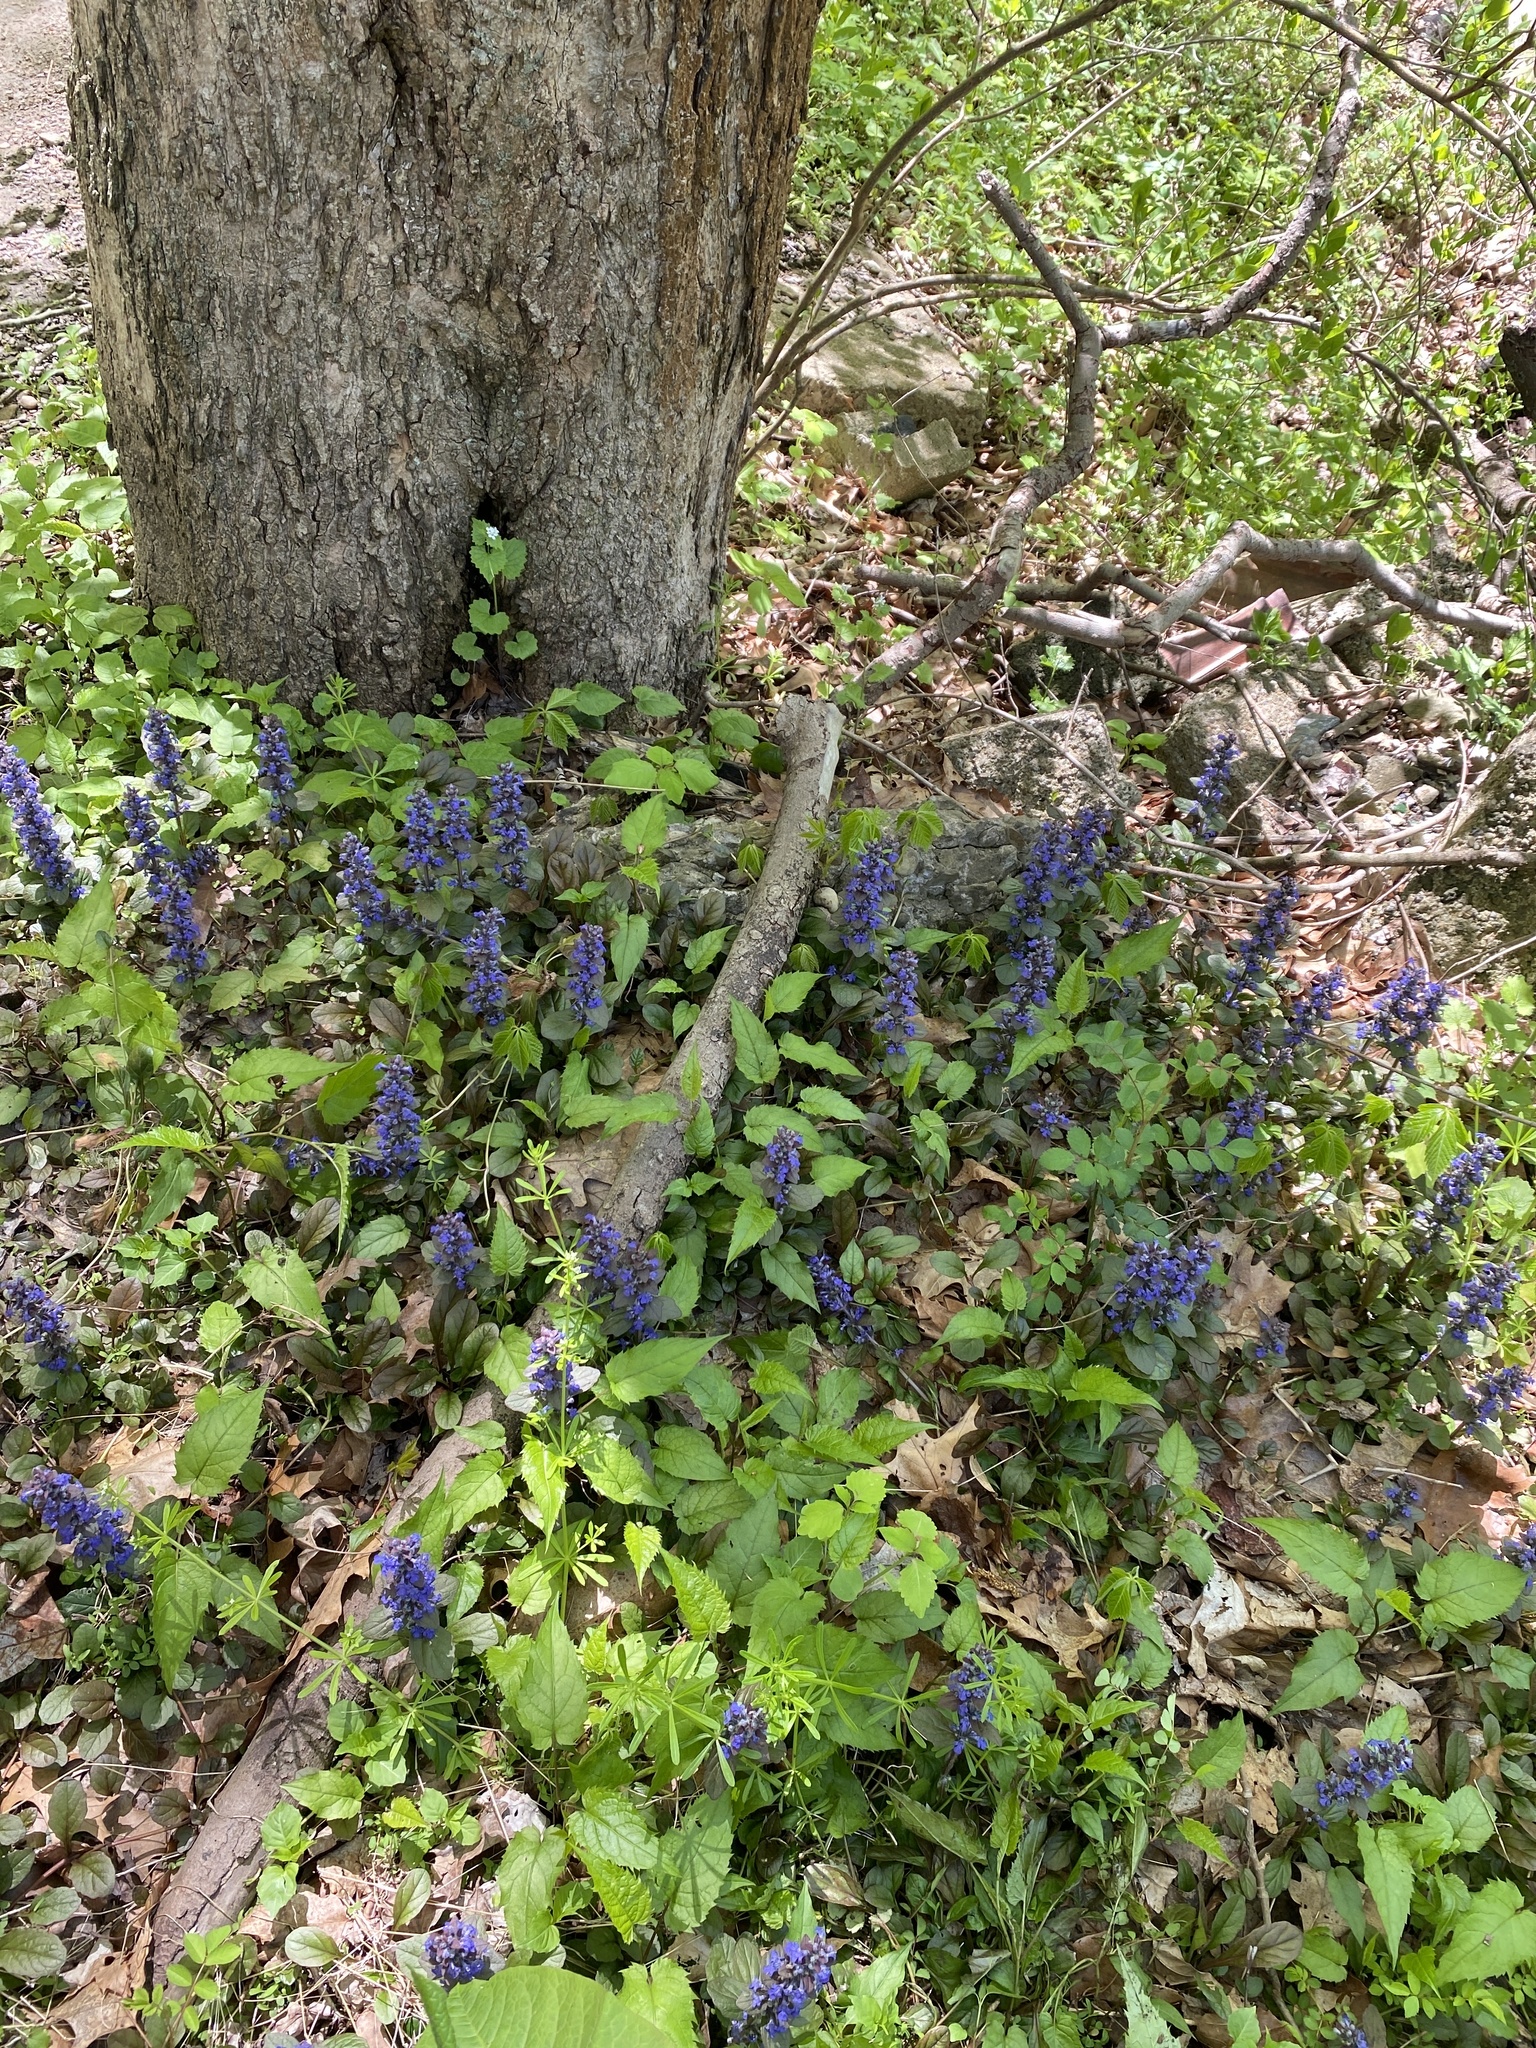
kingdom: Plantae
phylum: Tracheophyta
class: Magnoliopsida
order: Lamiales
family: Lamiaceae
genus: Ajuga
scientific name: Ajuga reptans
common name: Bugle
